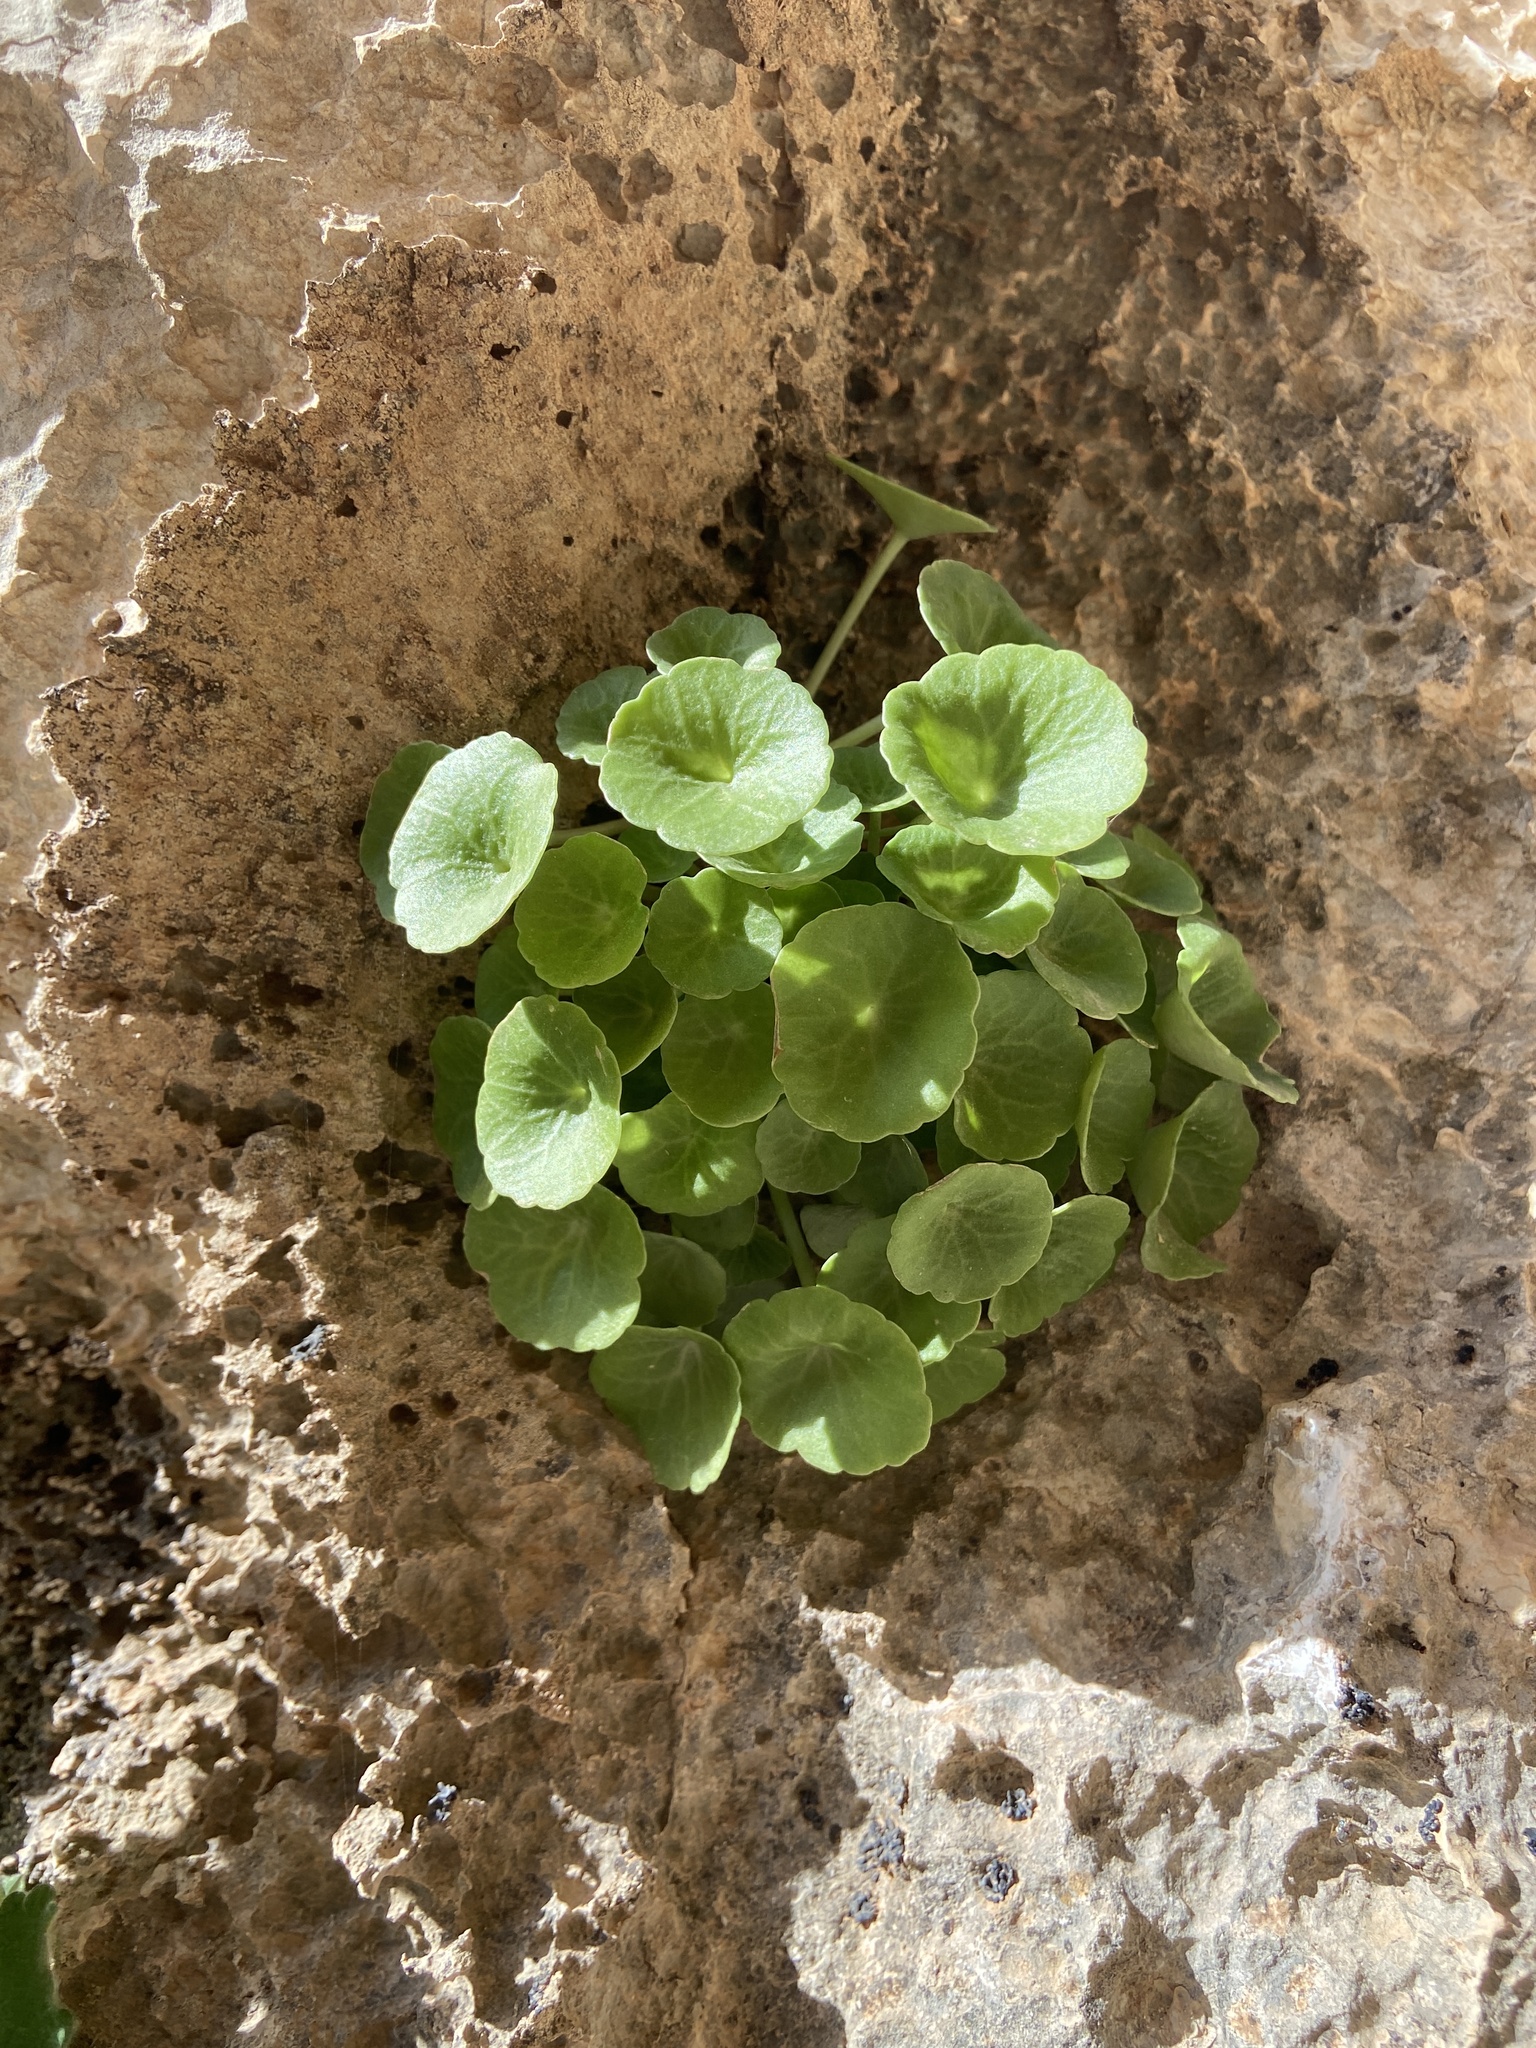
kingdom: Plantae
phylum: Tracheophyta
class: Magnoliopsida
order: Saxifragales
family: Crassulaceae
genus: Umbilicus
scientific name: Umbilicus rupestris
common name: Navelwort
